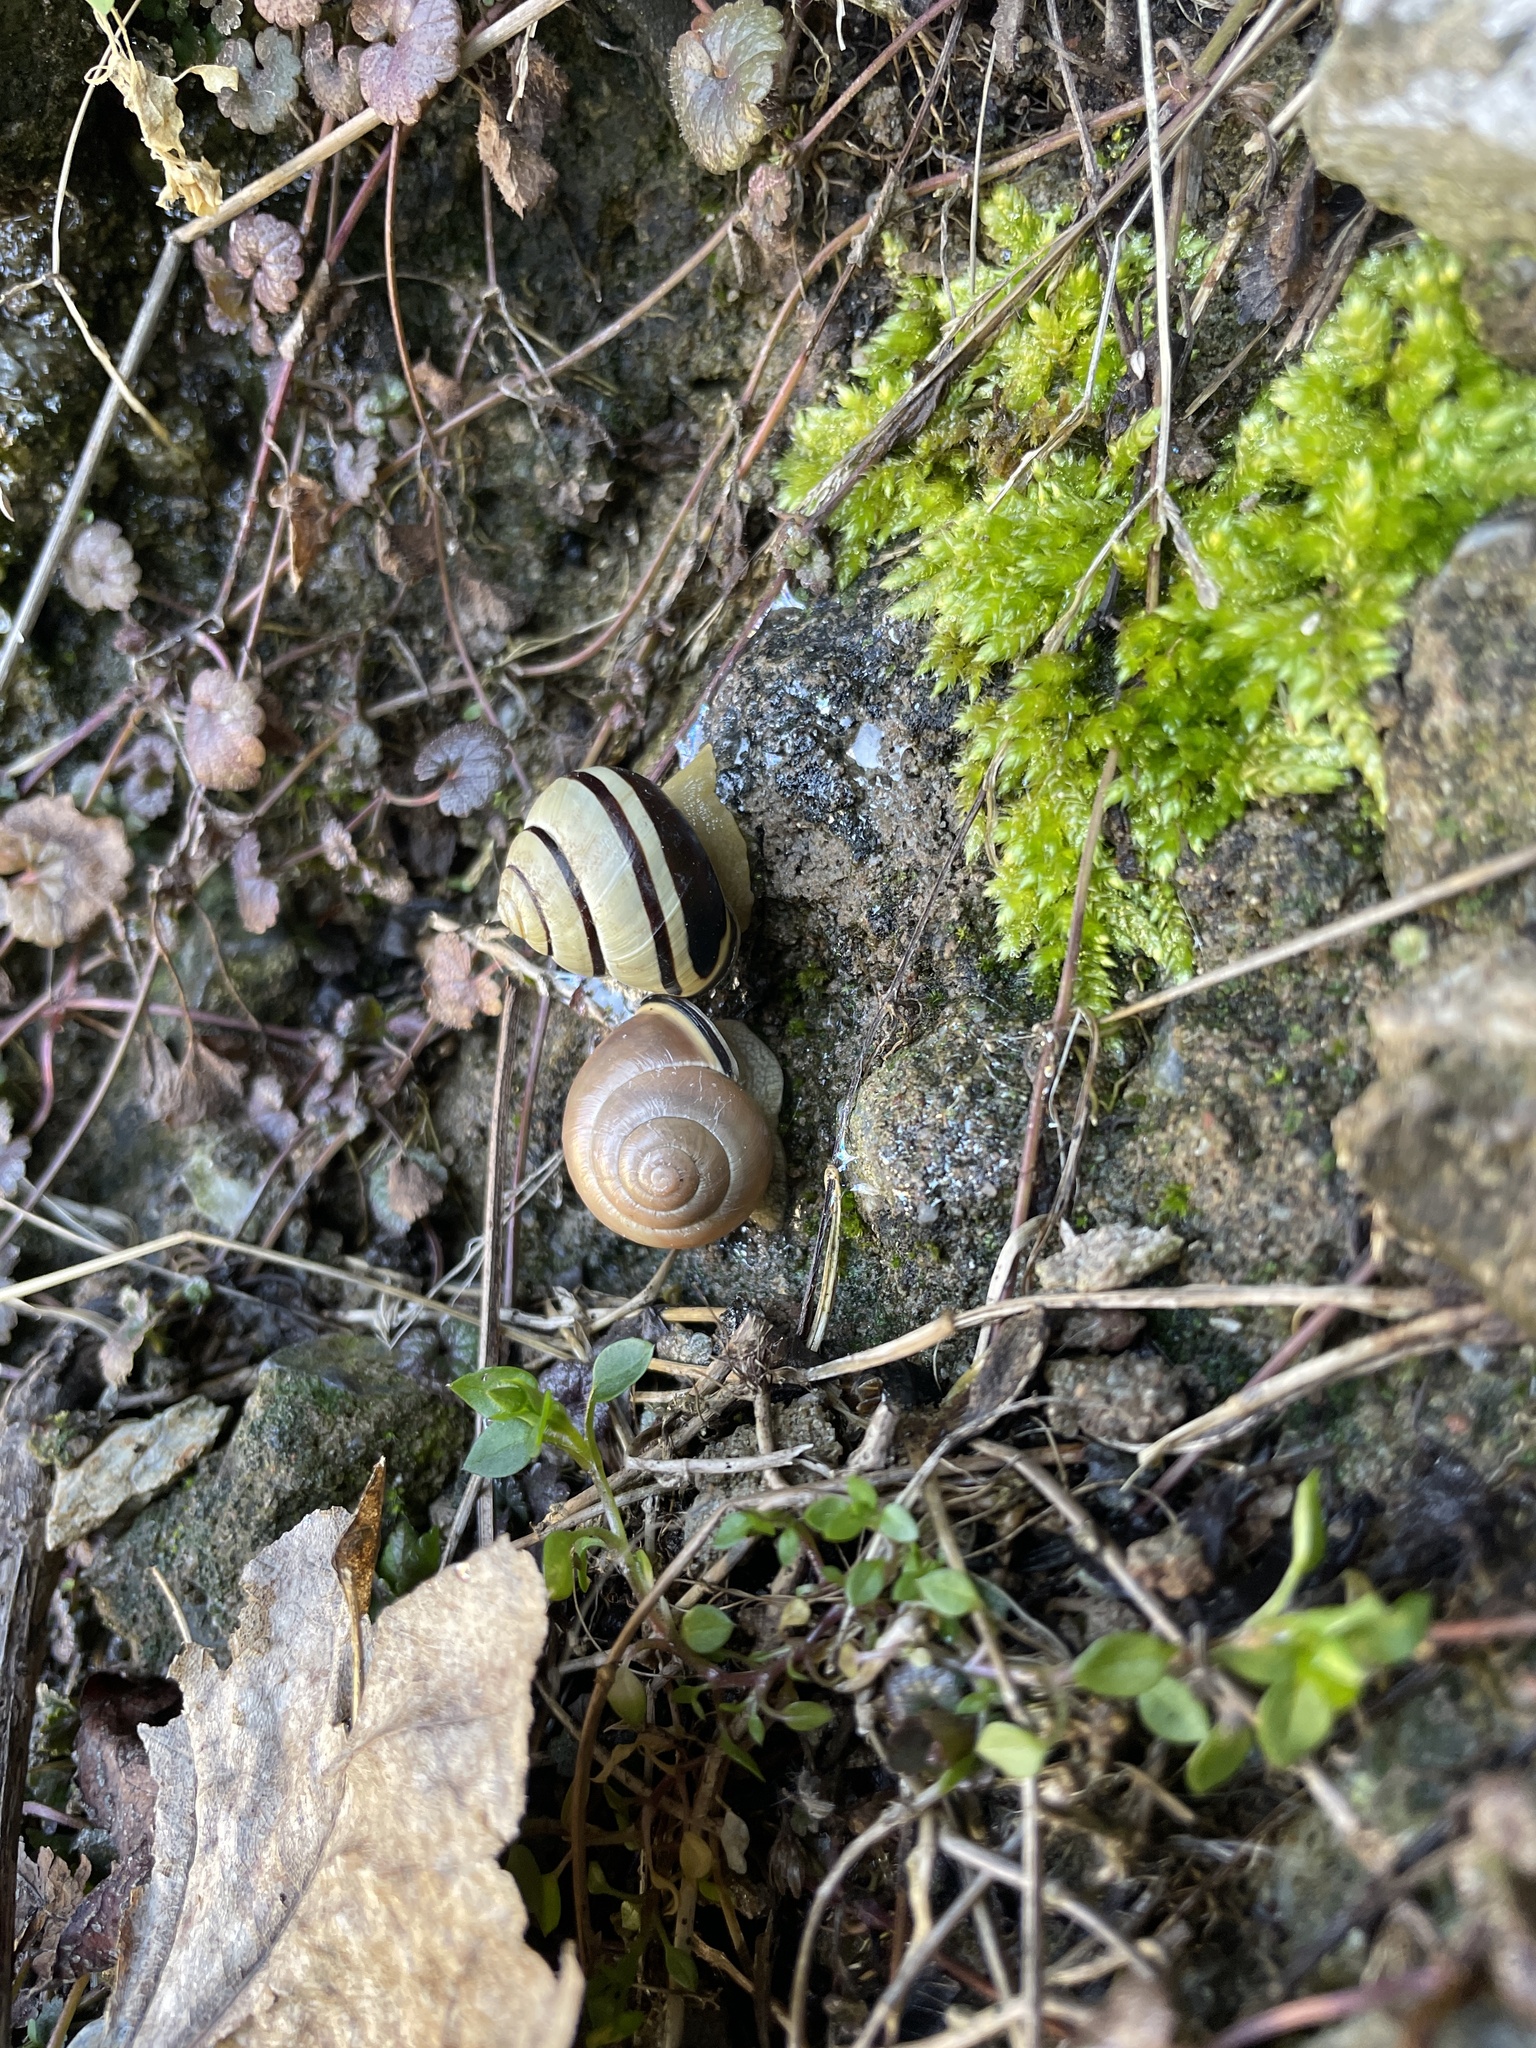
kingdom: Animalia
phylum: Mollusca
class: Gastropoda
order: Stylommatophora
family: Helicidae
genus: Cepaea
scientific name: Cepaea nemoralis
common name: Grovesnail
